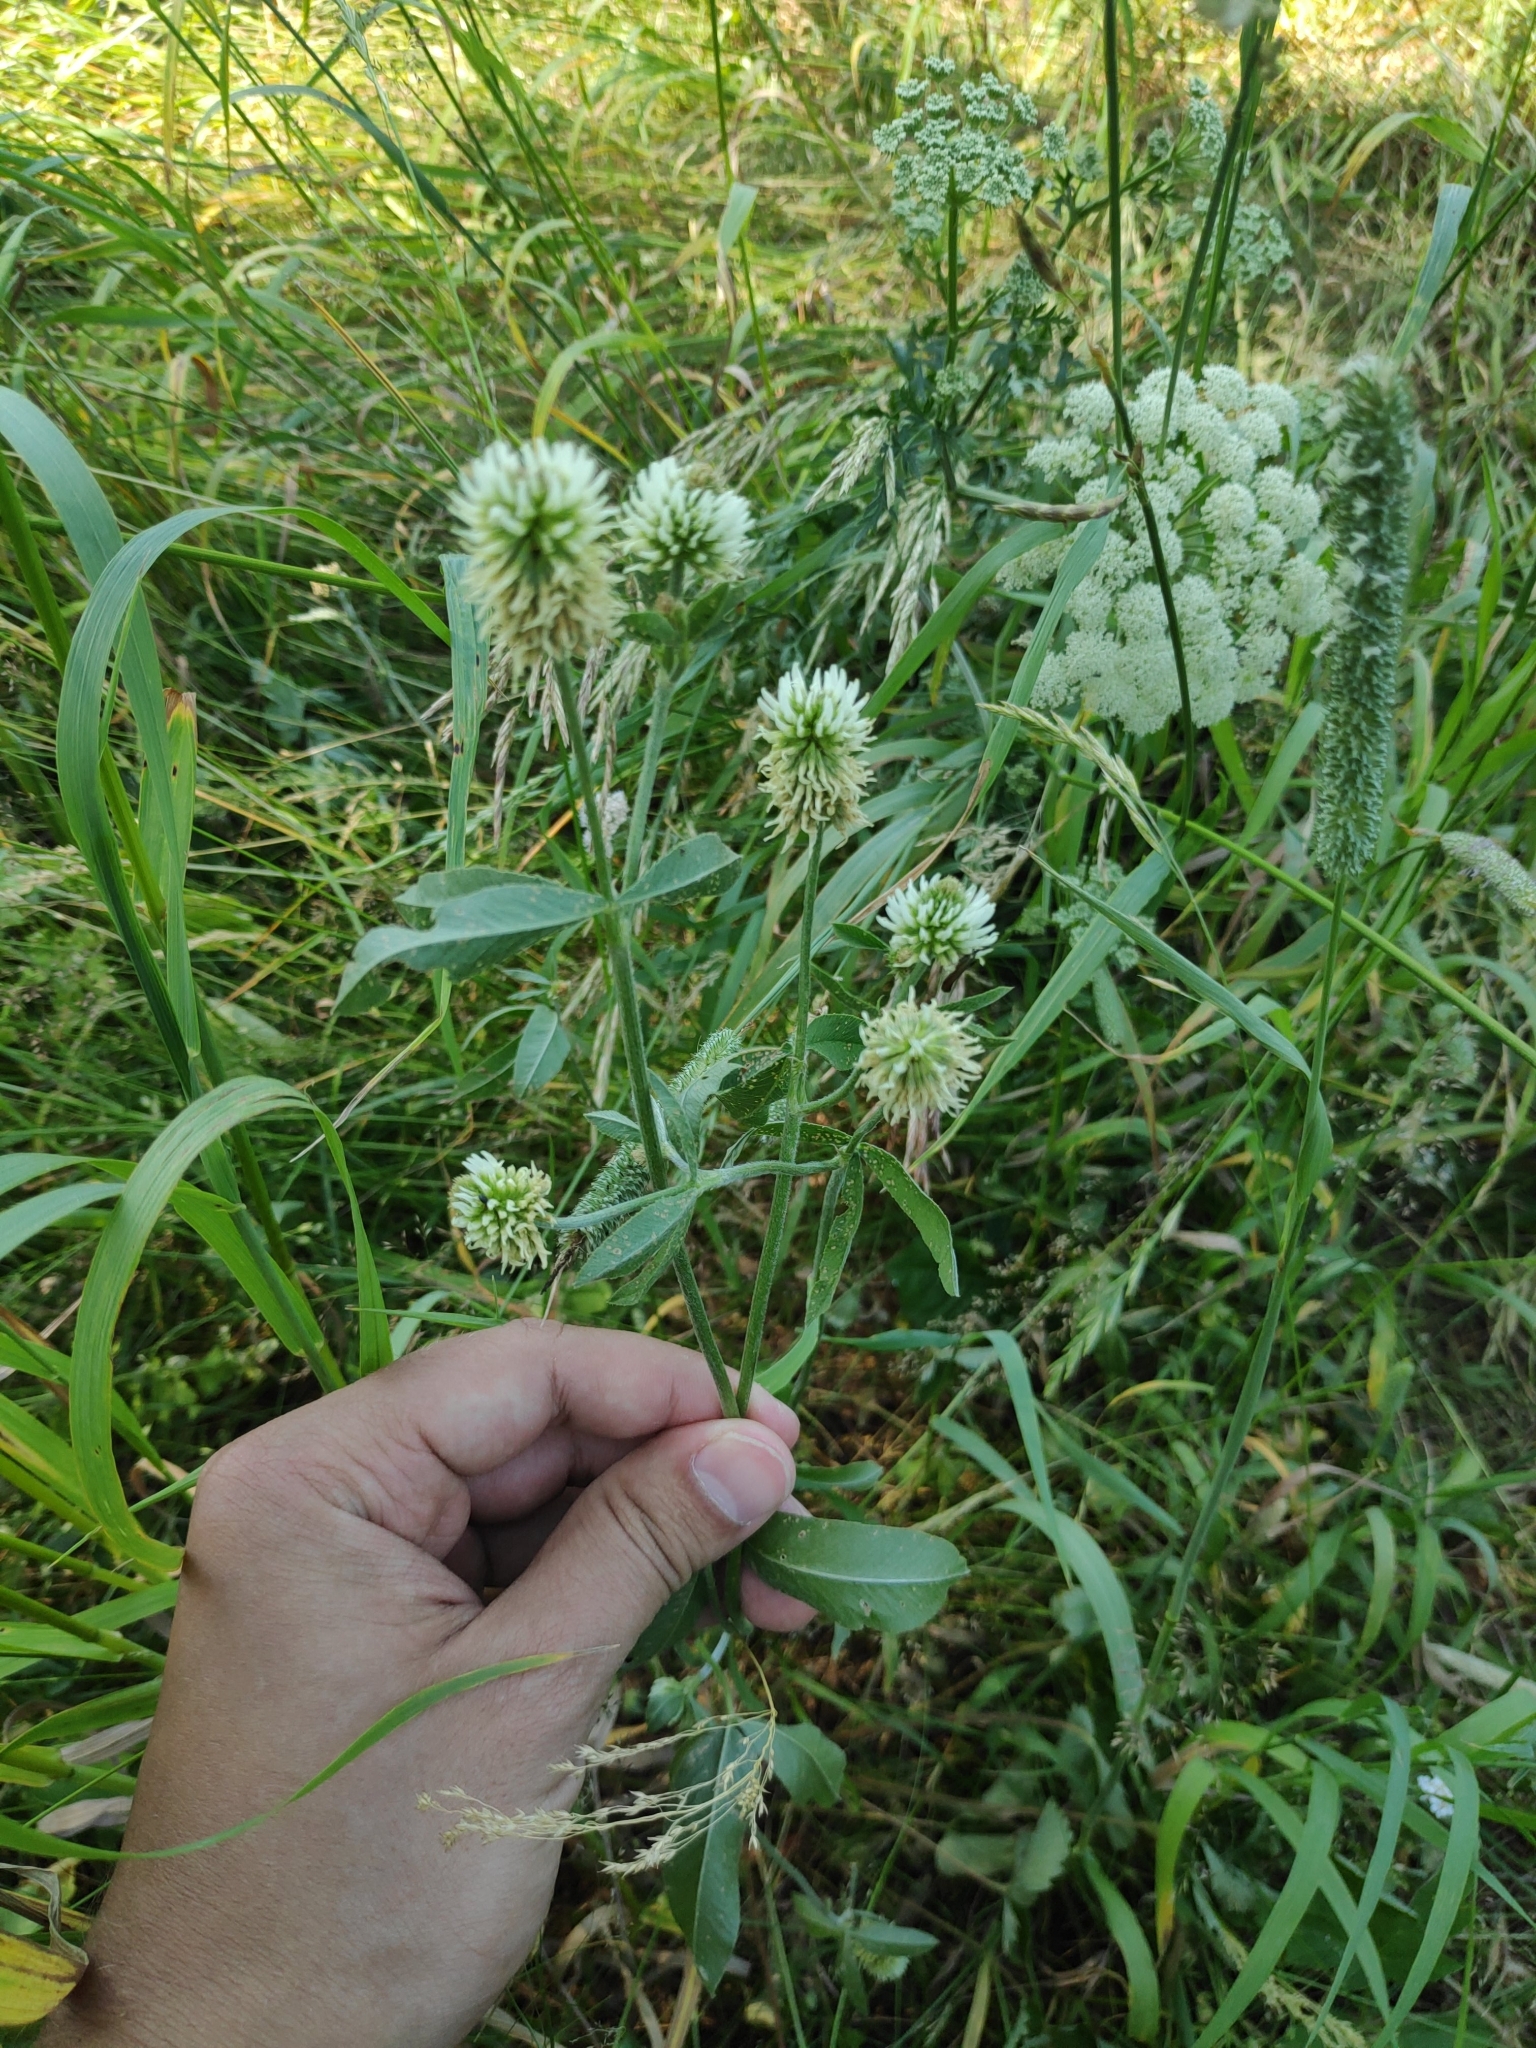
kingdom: Plantae
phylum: Tracheophyta
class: Magnoliopsida
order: Fabales
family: Fabaceae
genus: Trifolium
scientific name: Trifolium montanum
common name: Mountain clover
